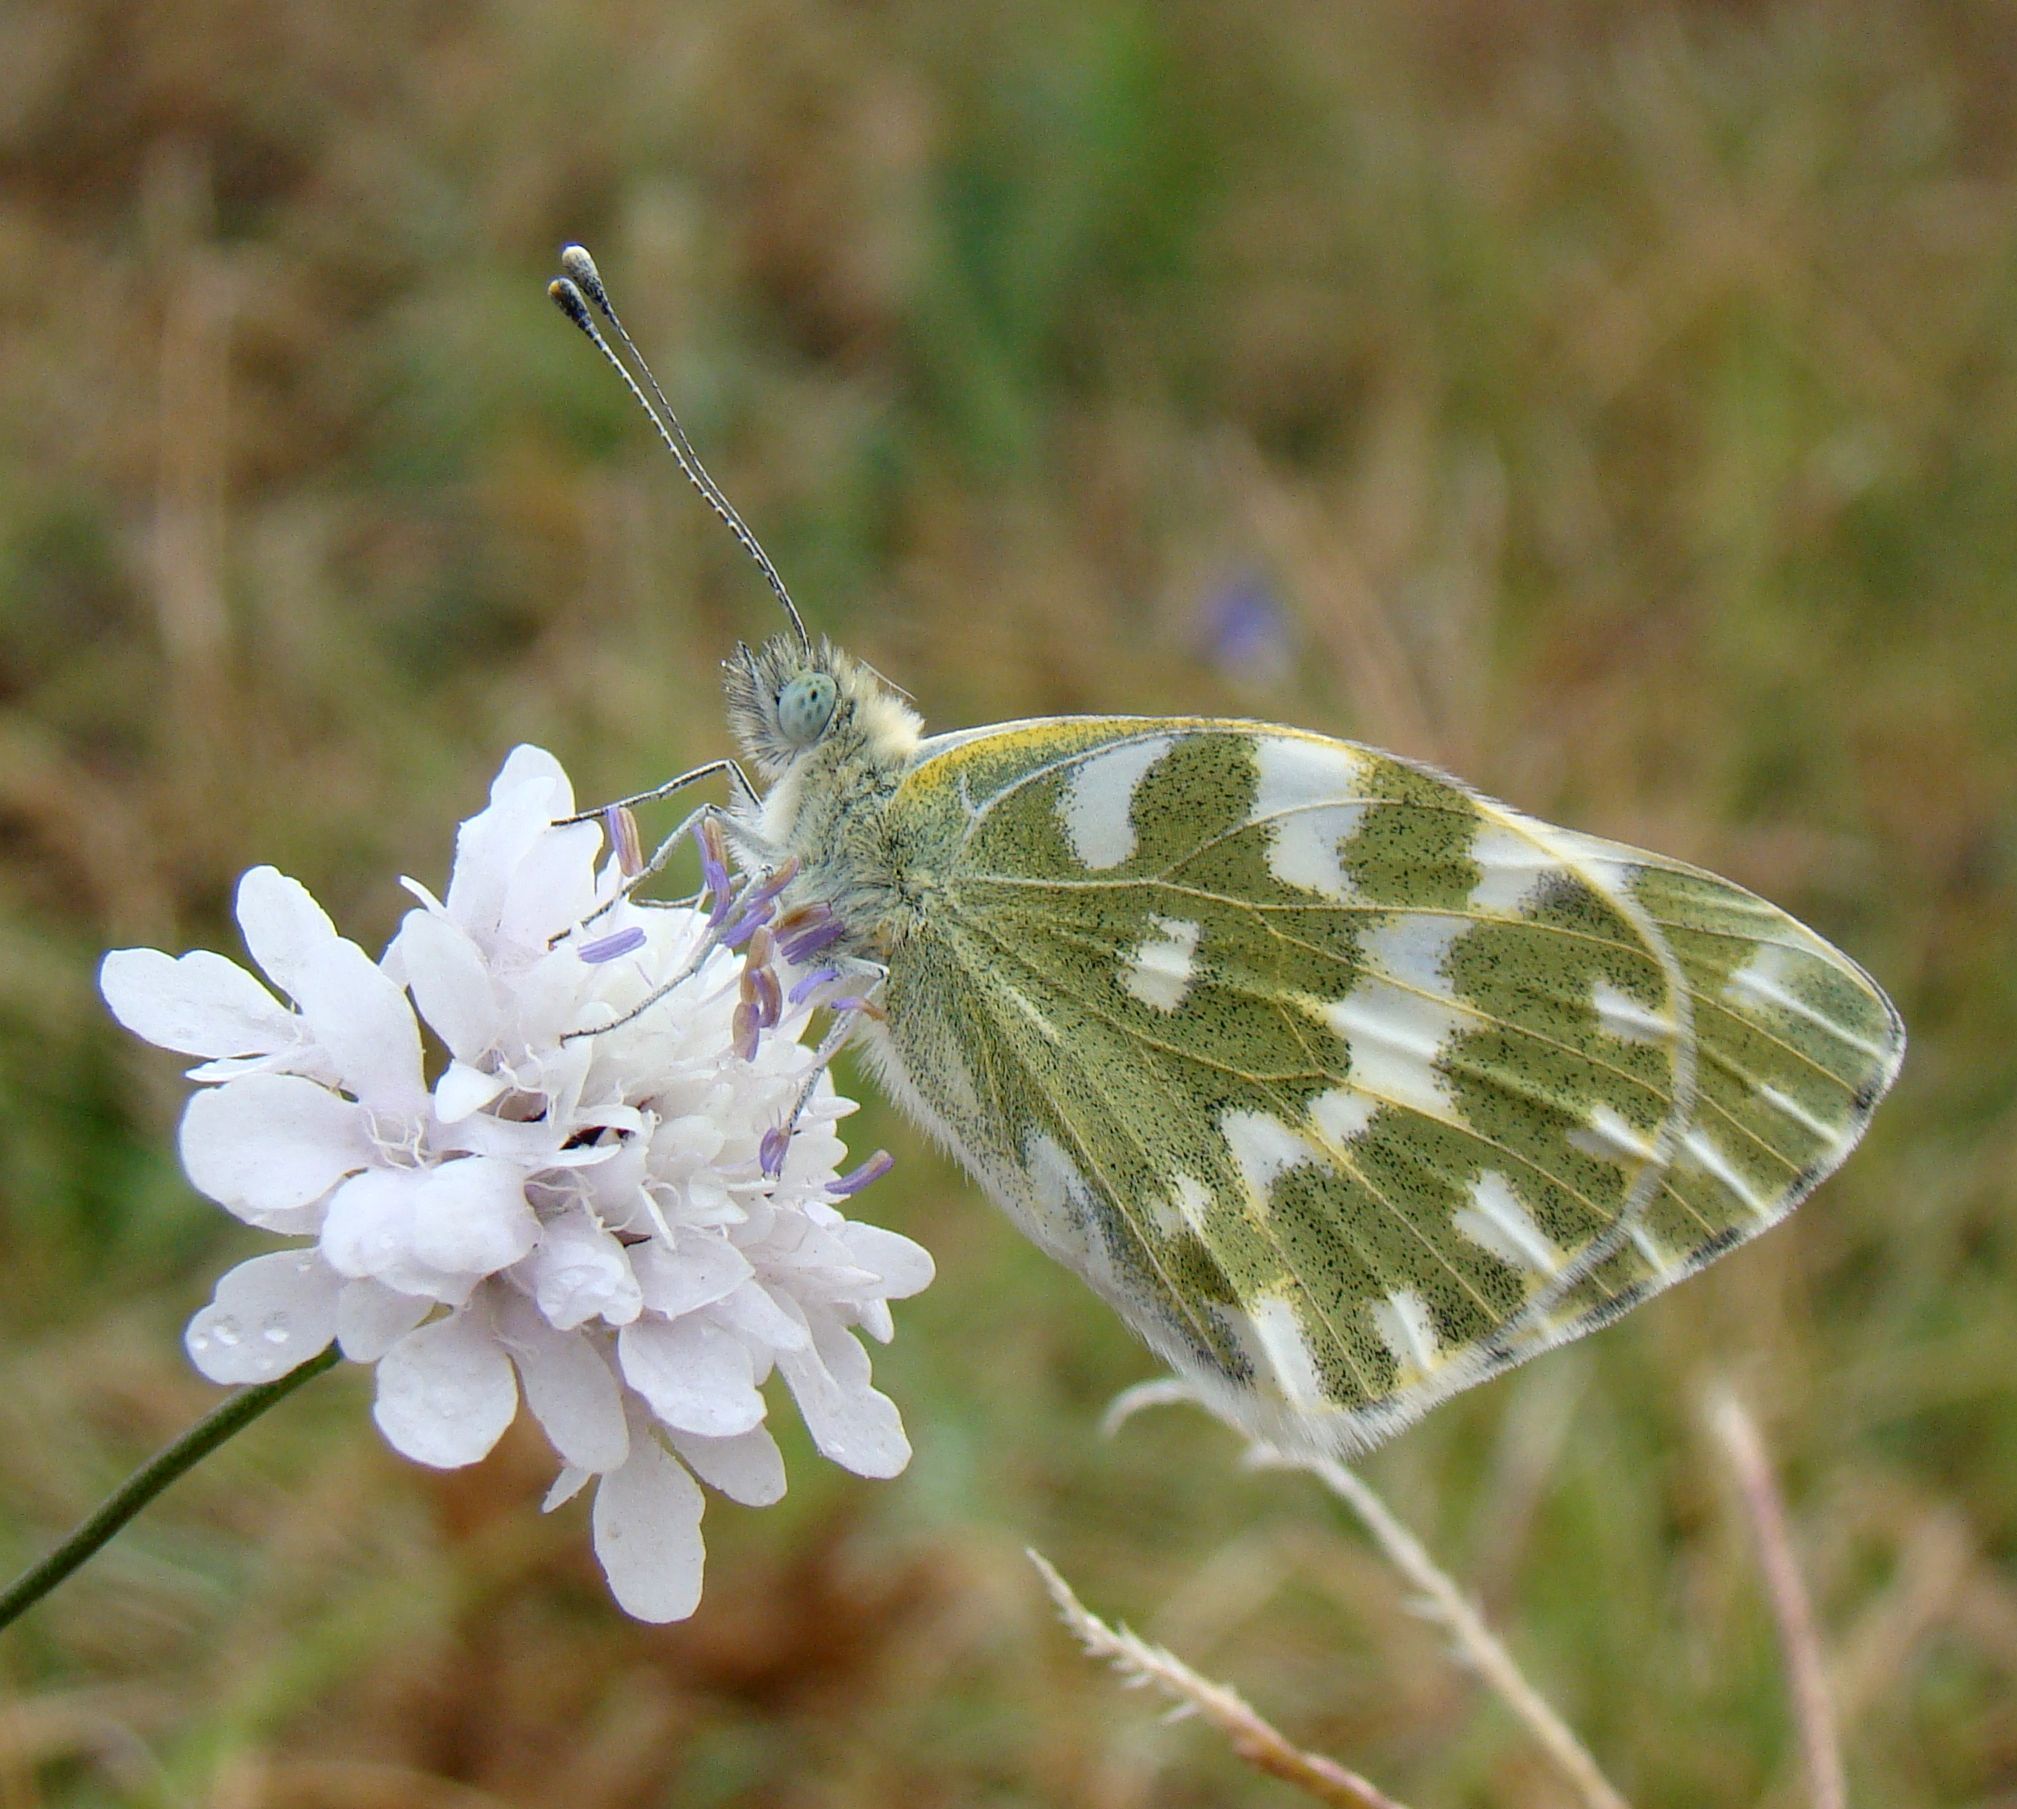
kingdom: Animalia
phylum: Arthropoda
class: Insecta
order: Lepidoptera
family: Pieridae
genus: Pontia
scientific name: Pontia edusa
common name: Eastern bath white
